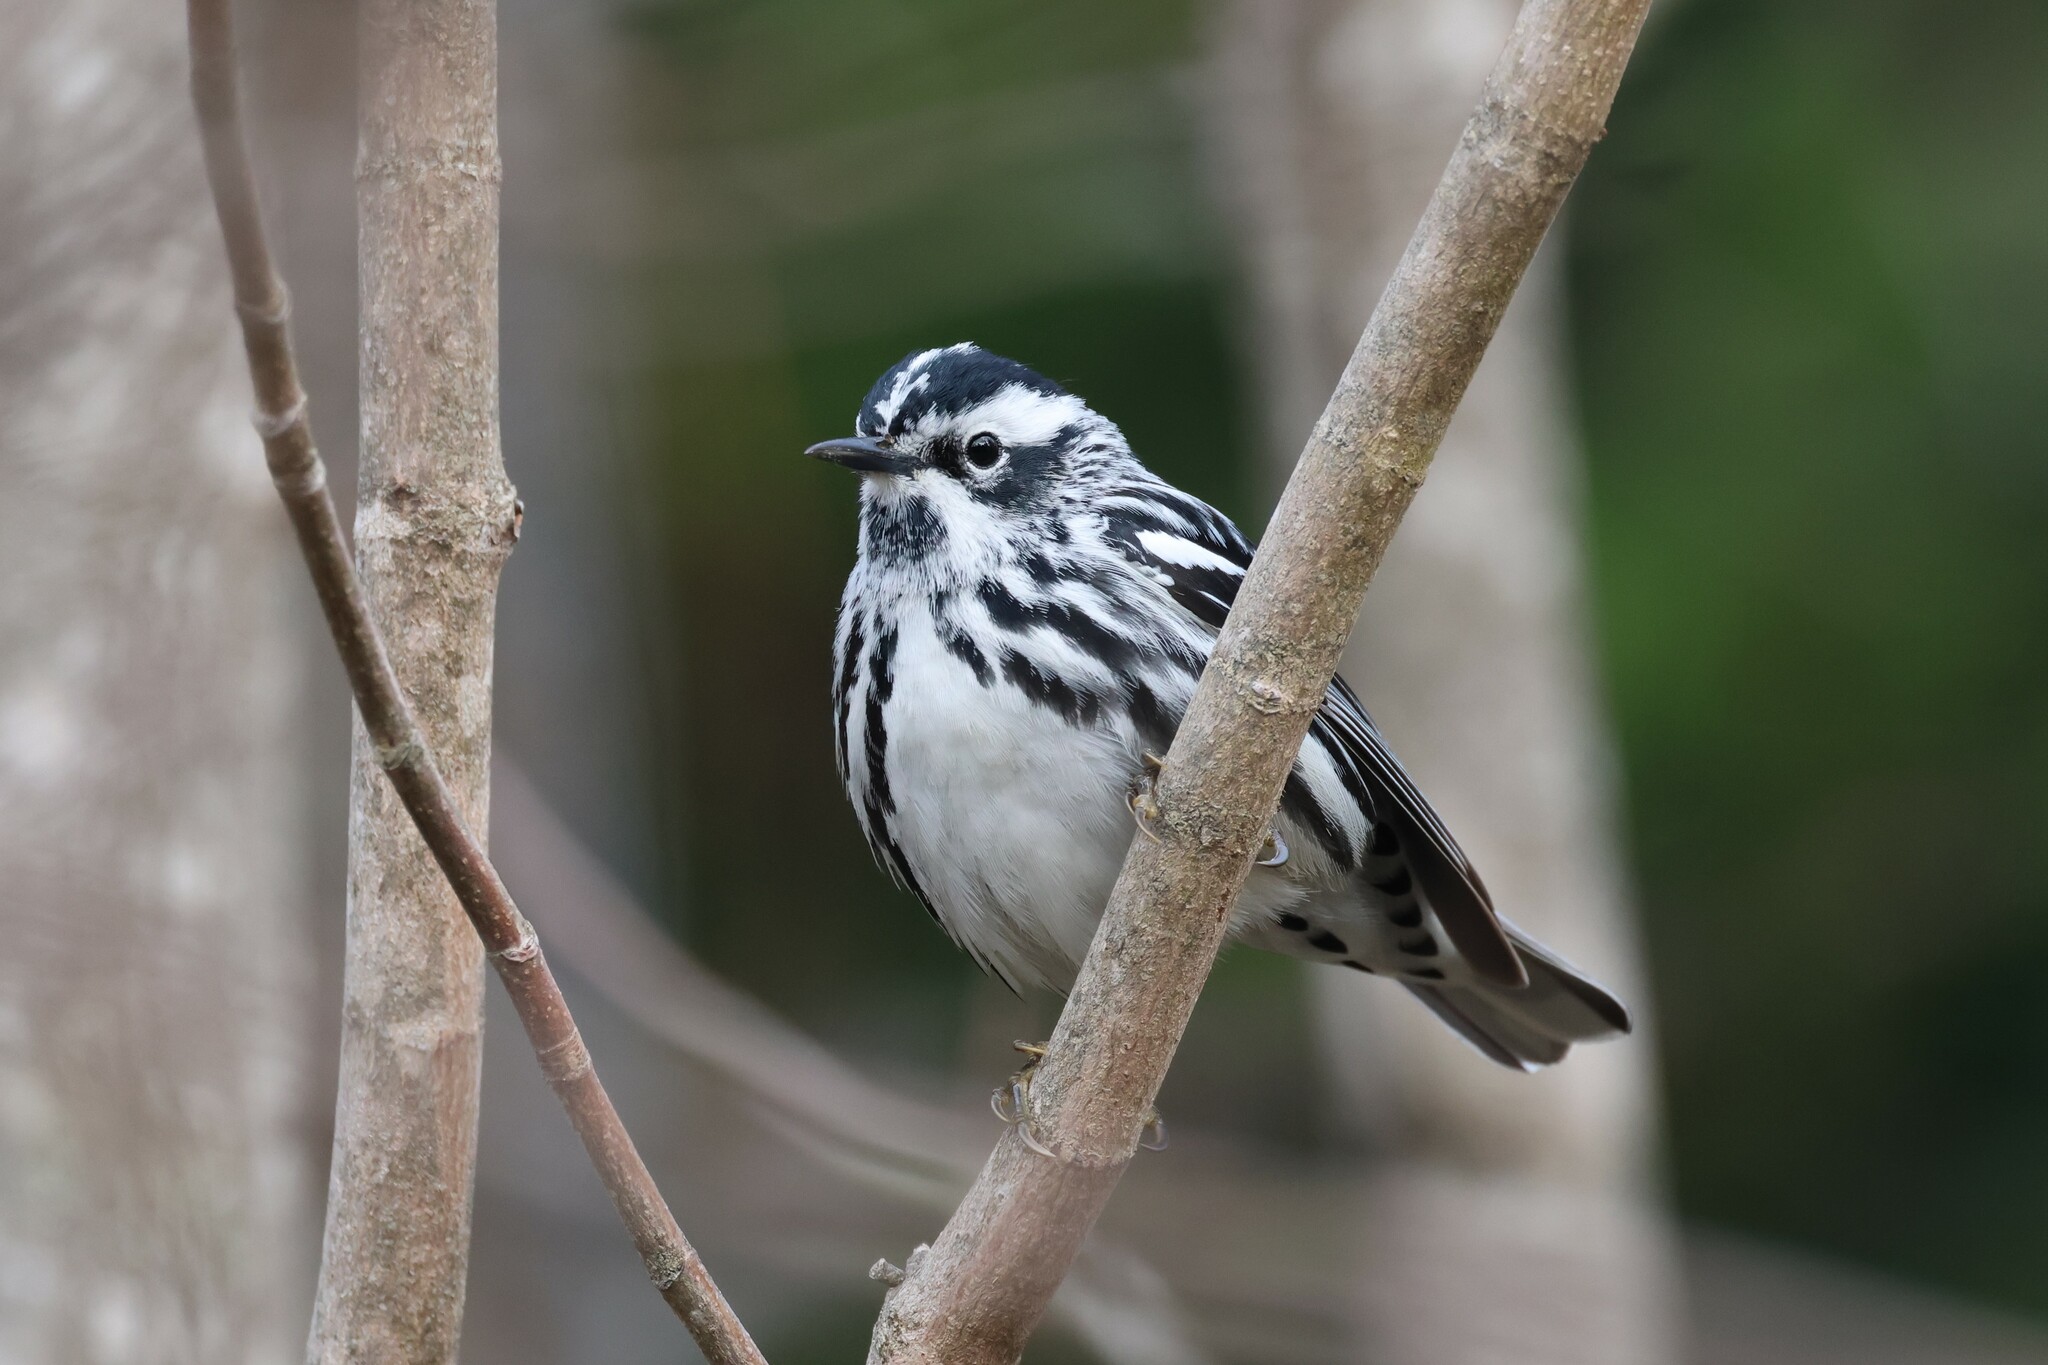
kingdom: Animalia
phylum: Chordata
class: Aves
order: Passeriformes
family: Parulidae
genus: Mniotilta
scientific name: Mniotilta varia
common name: Black-and-white warbler
